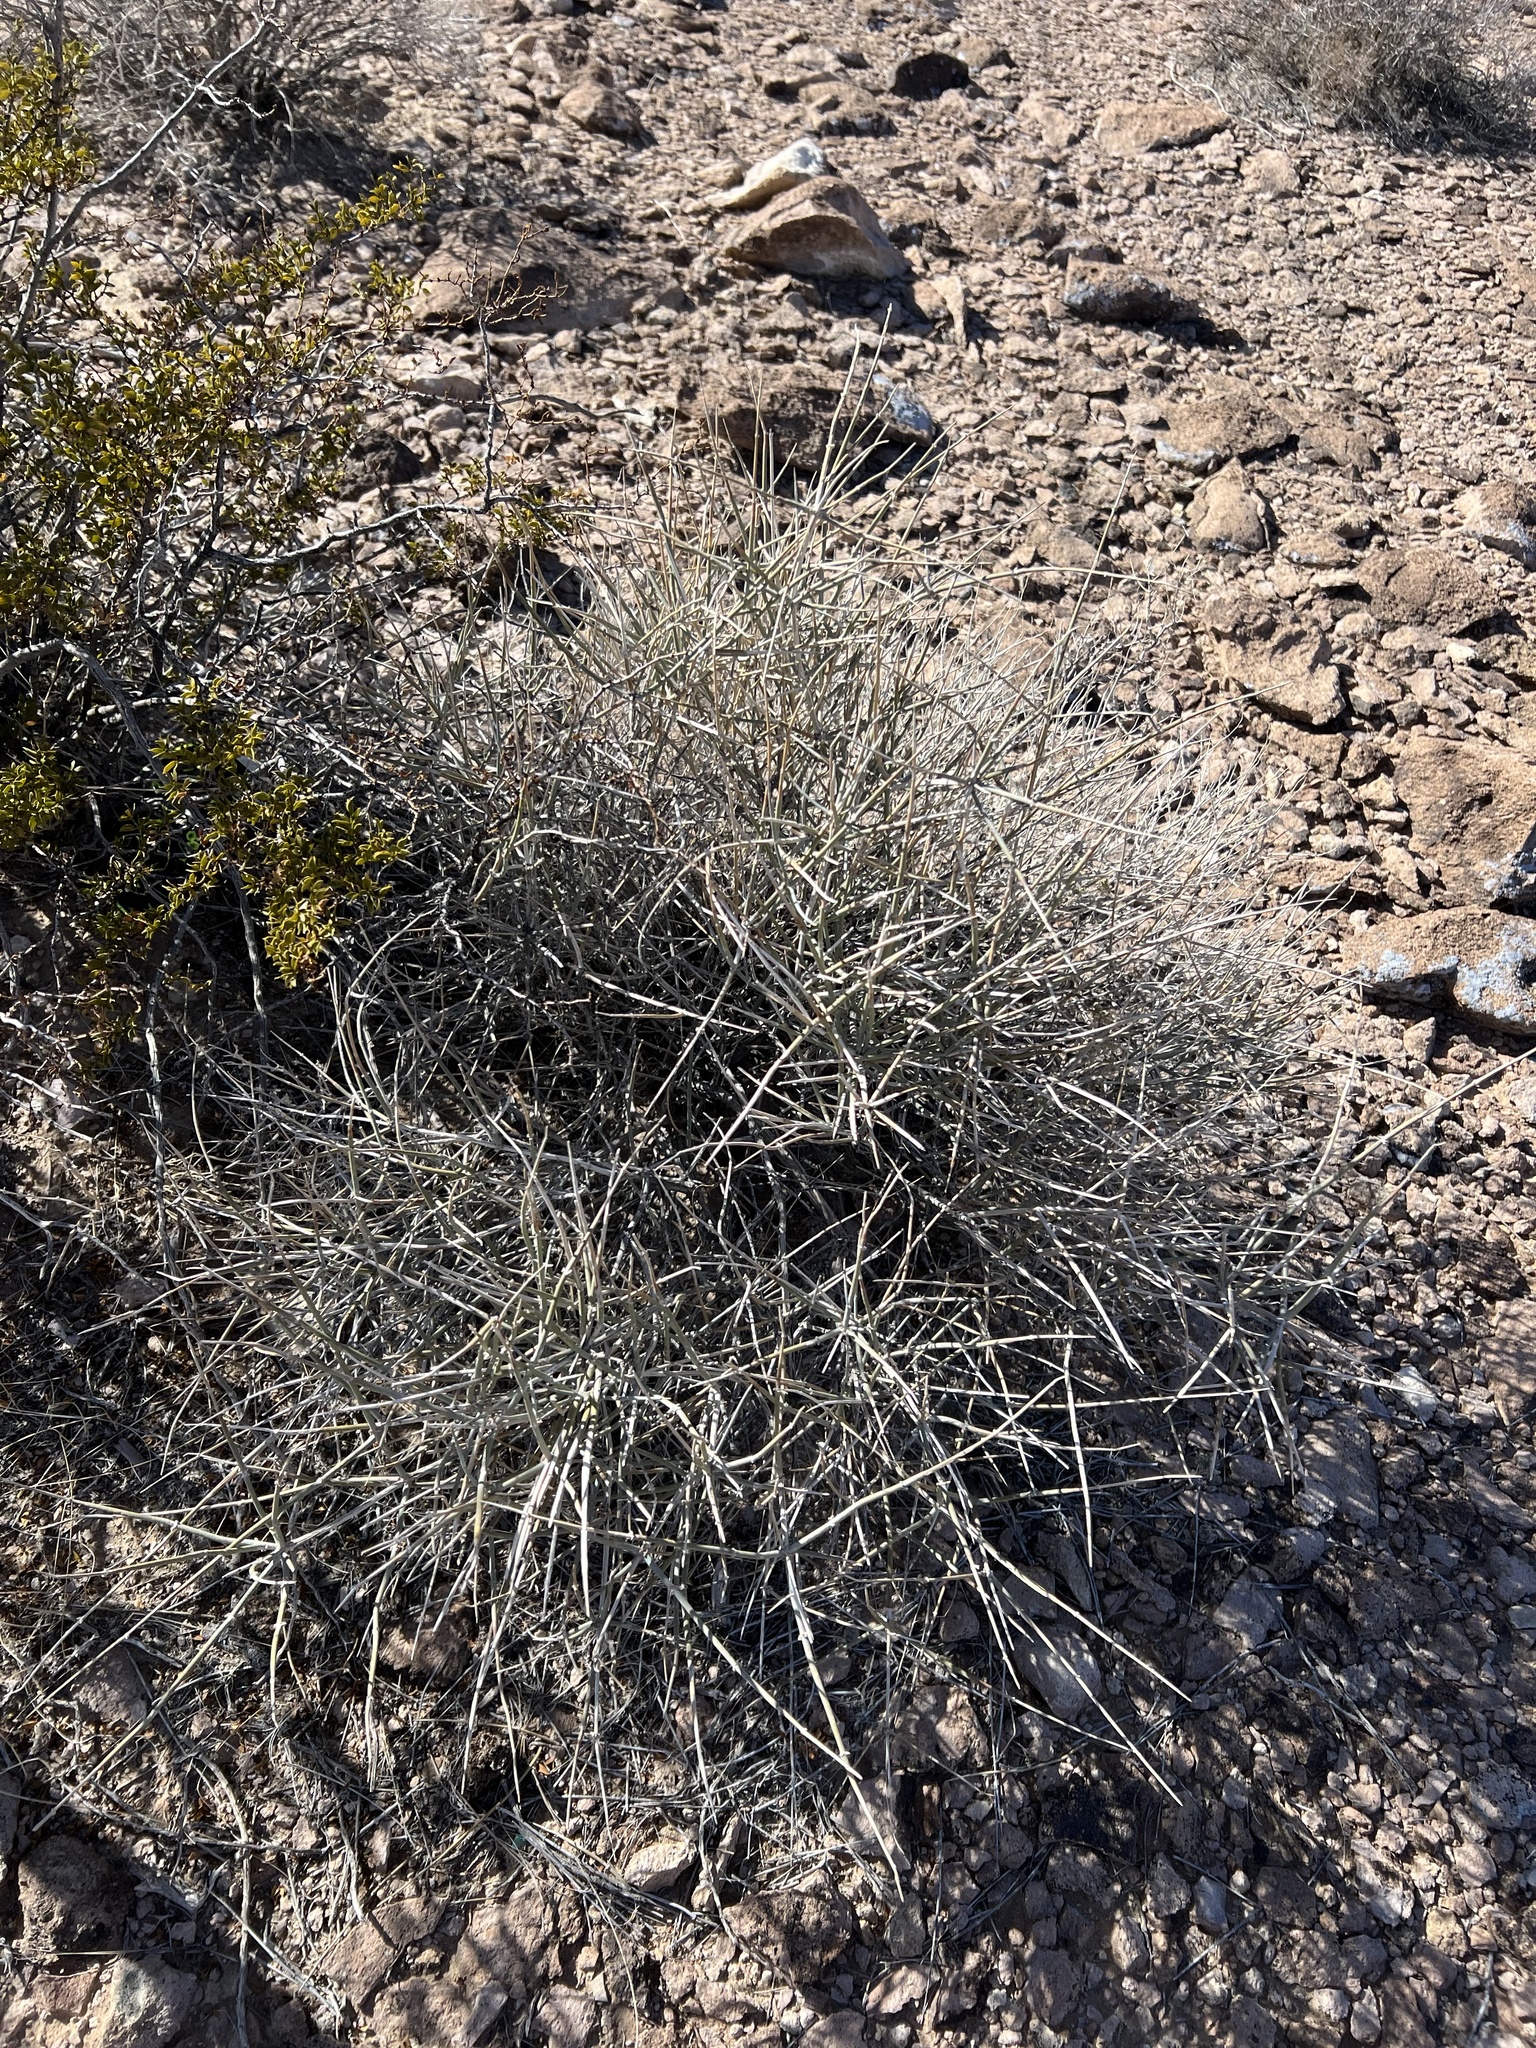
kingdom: Plantae
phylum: Tracheophyta
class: Gnetopsida
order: Ephedrales
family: Ephedraceae
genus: Ephedra
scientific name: Ephedra nevadensis
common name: Gray ephedra
